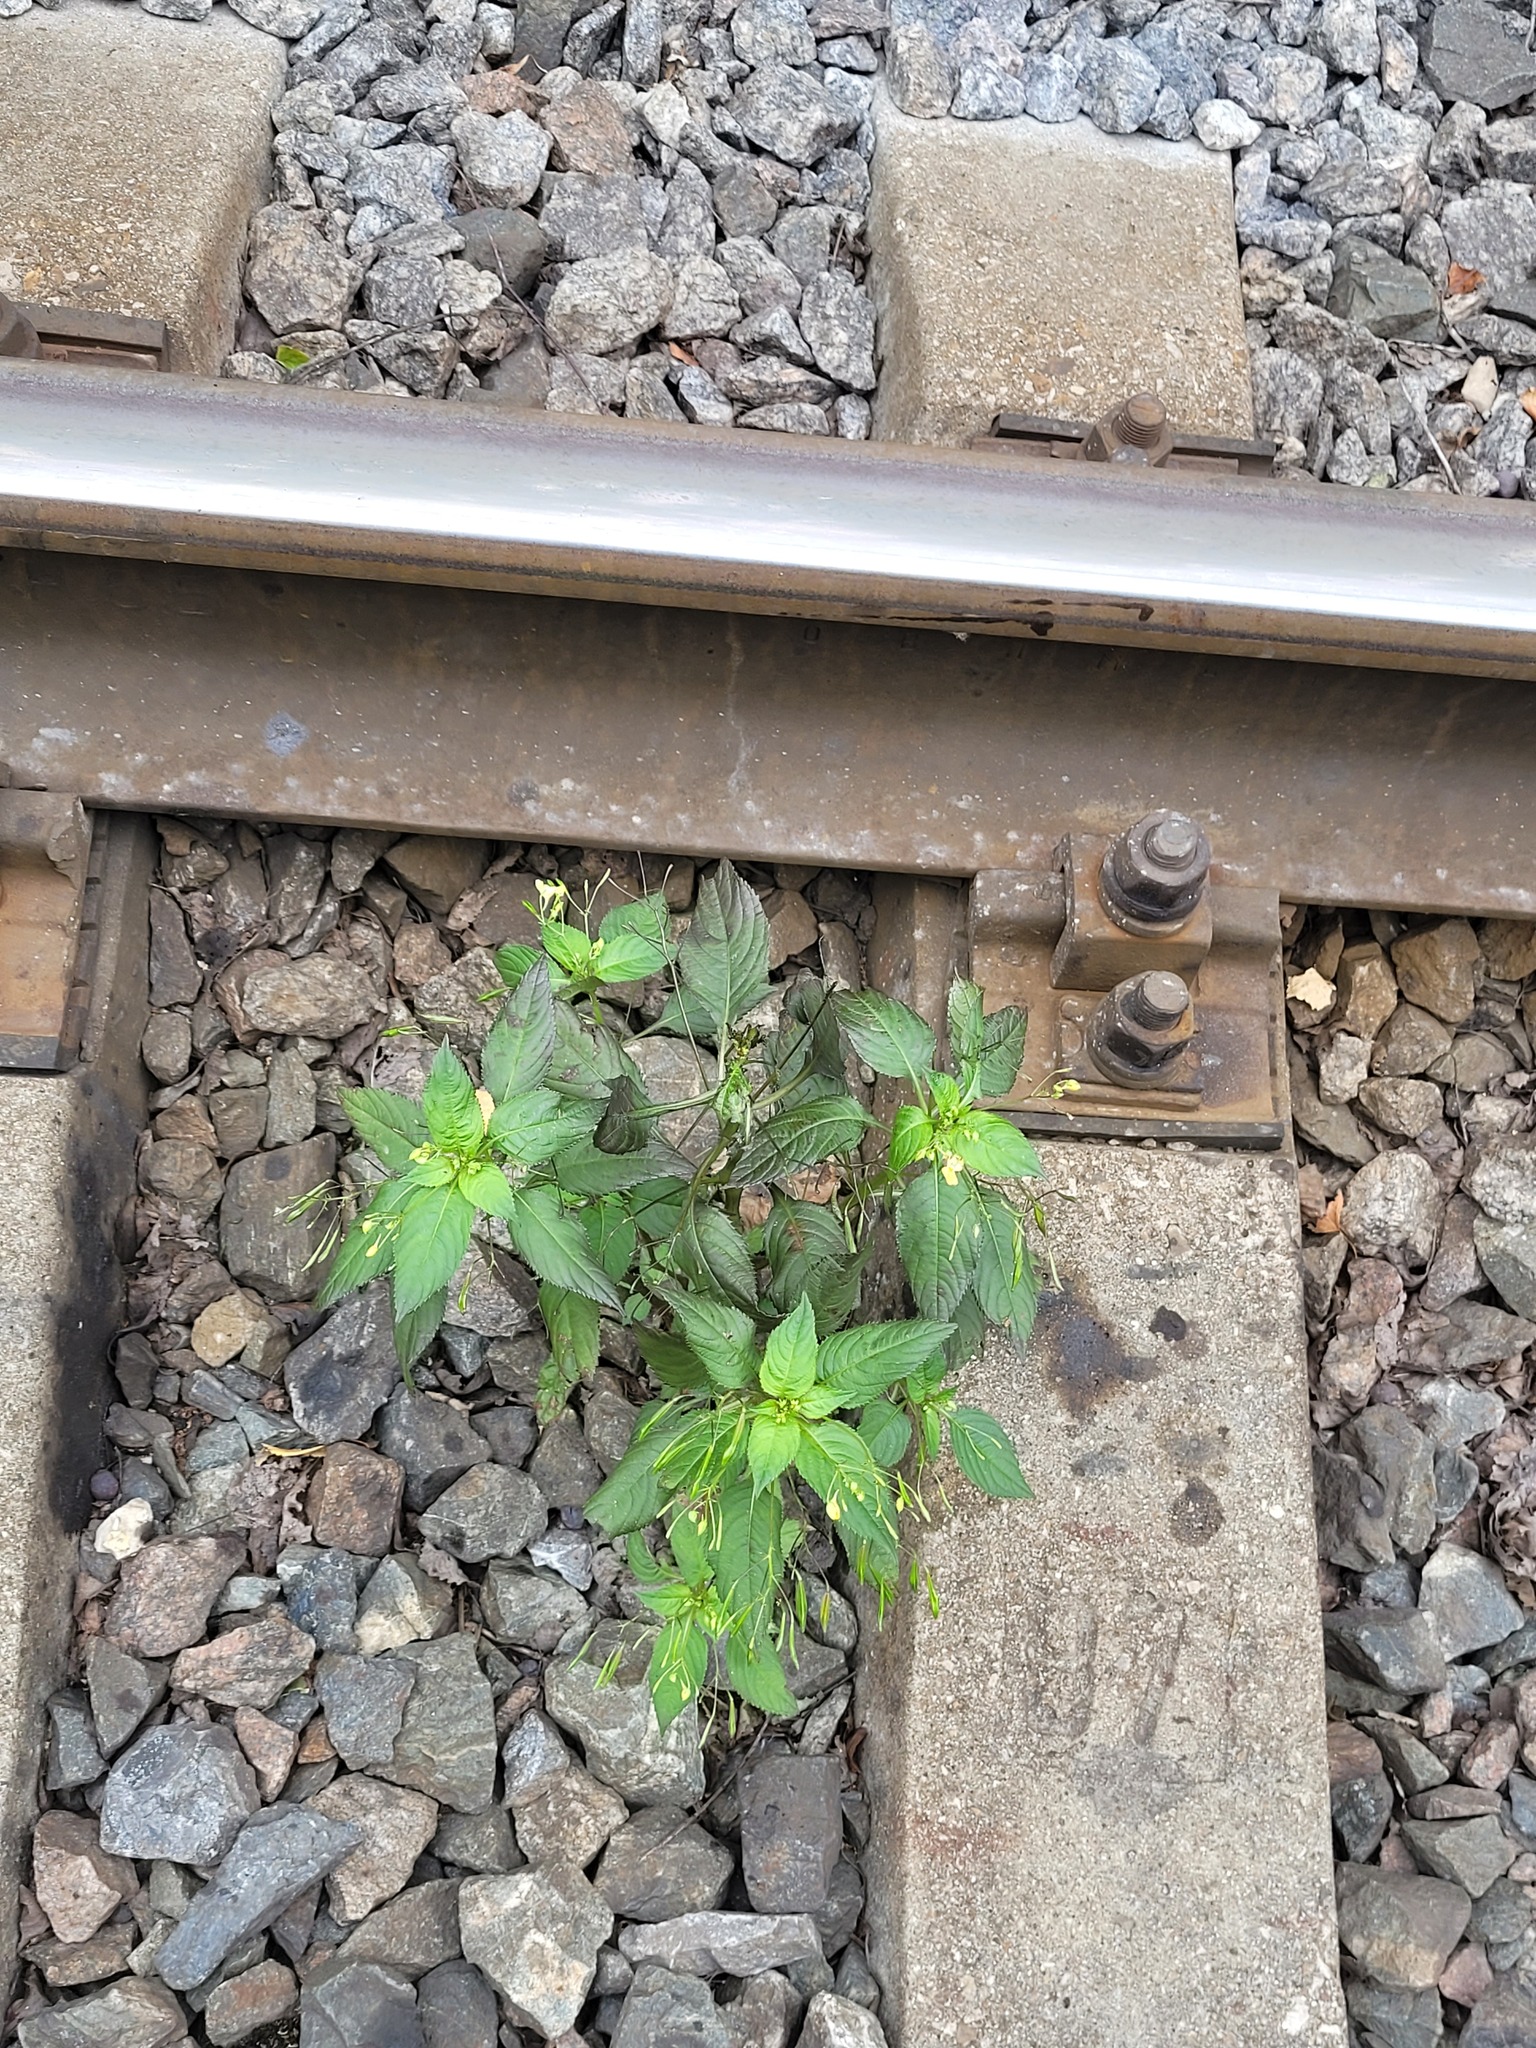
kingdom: Plantae
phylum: Tracheophyta
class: Magnoliopsida
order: Ericales
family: Balsaminaceae
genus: Impatiens
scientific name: Impatiens parviflora
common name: Small balsam
